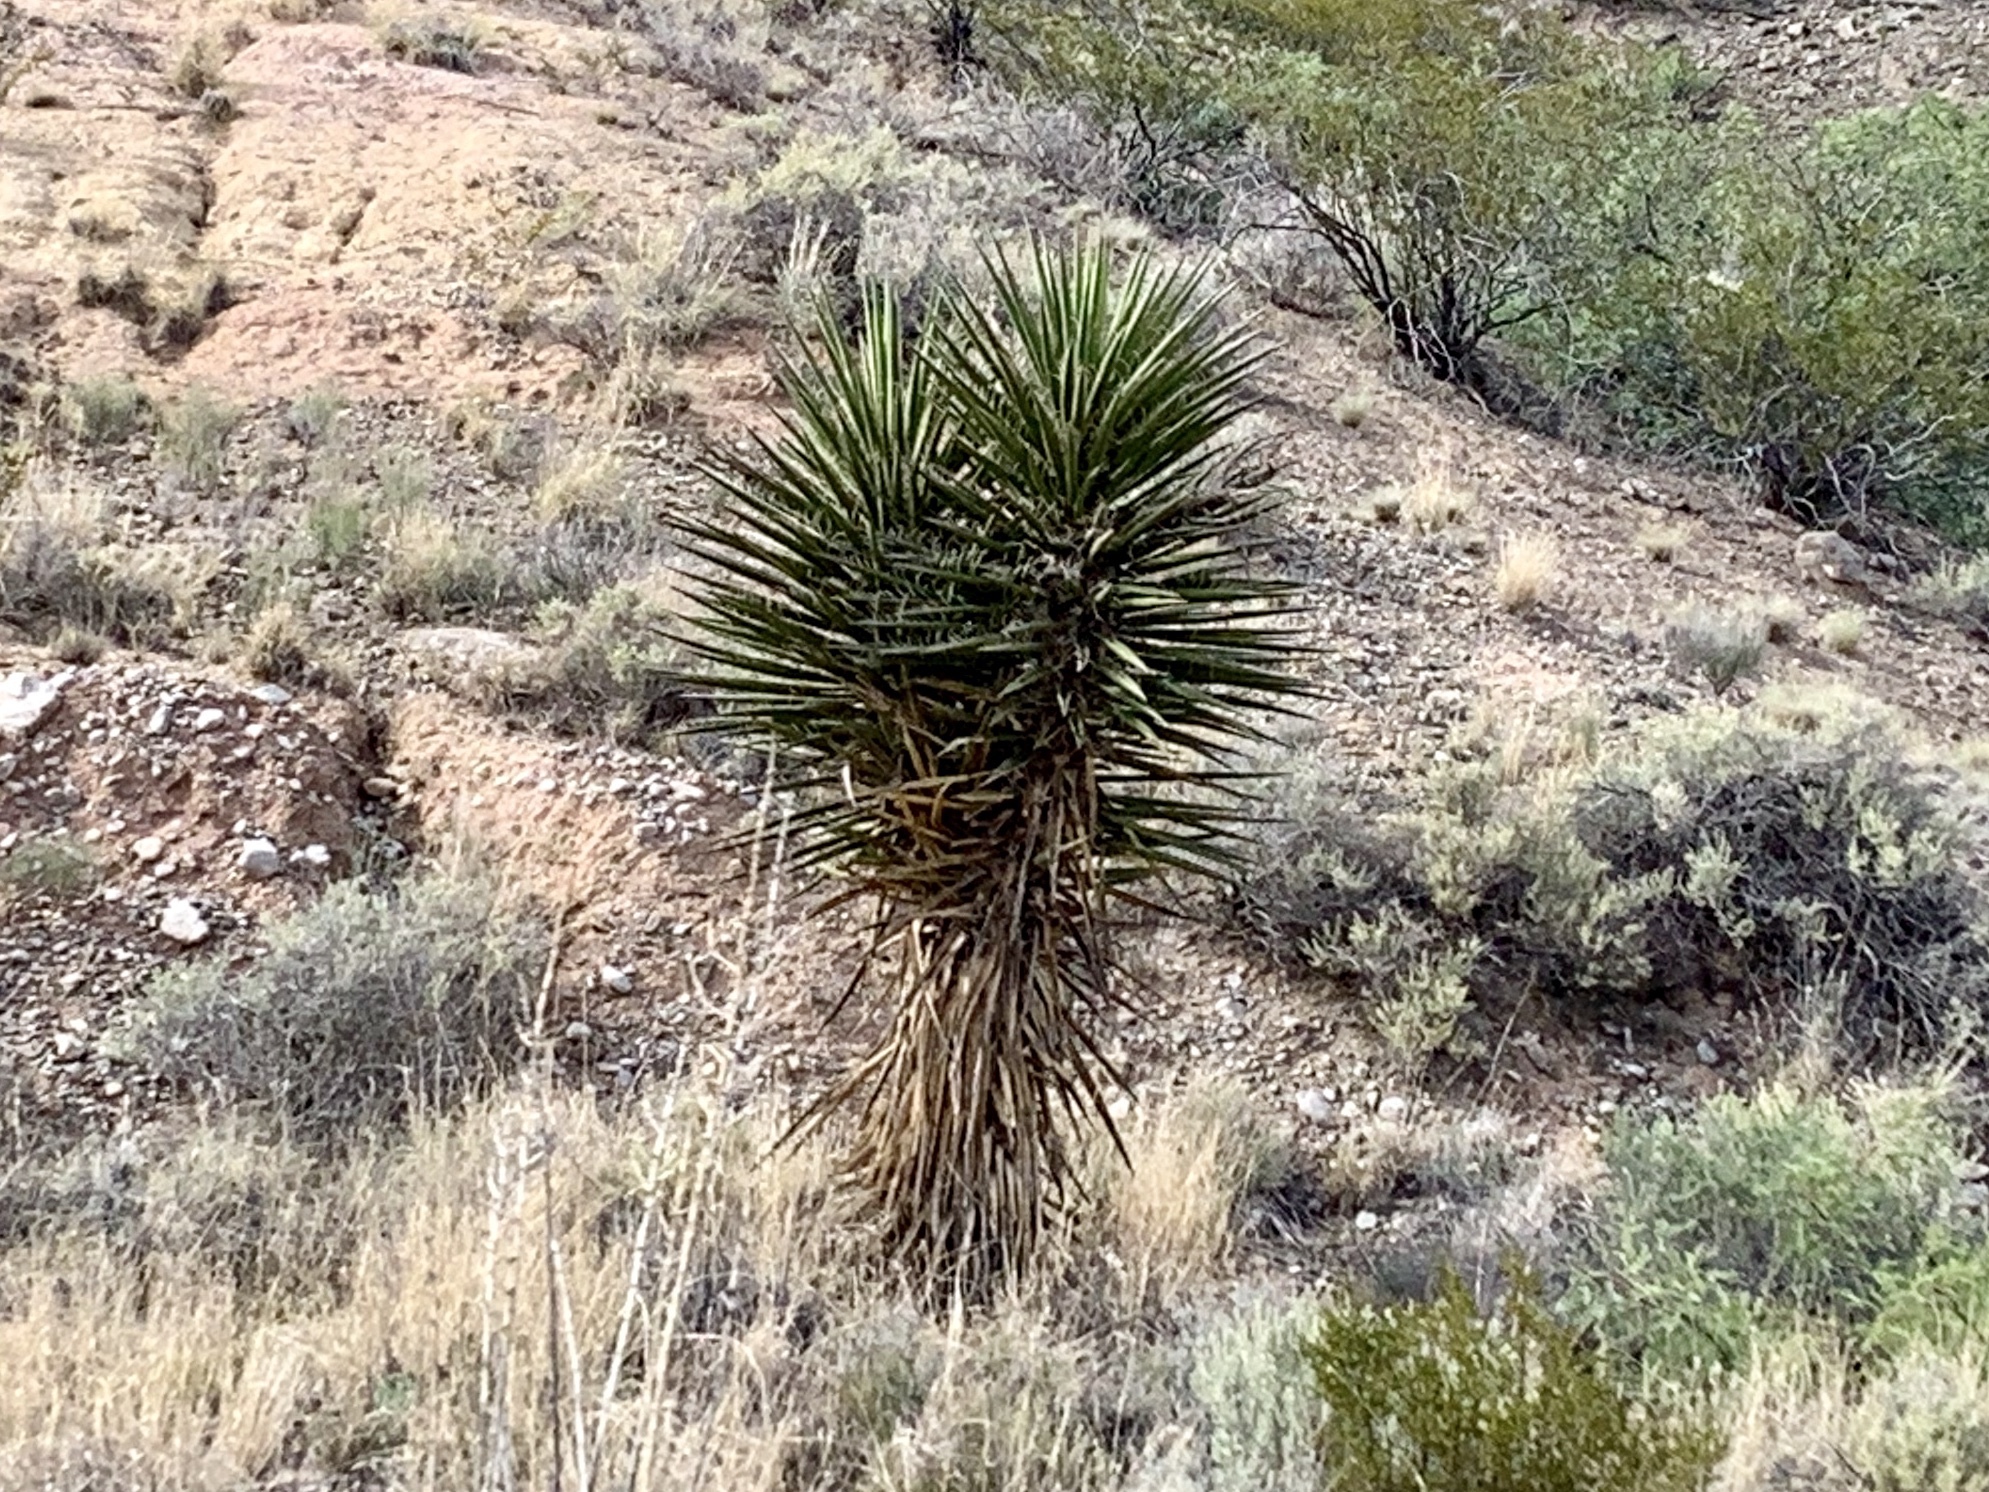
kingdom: Plantae
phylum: Tracheophyta
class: Liliopsida
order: Asparagales
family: Asparagaceae
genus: Yucca
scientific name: Yucca treculiana
